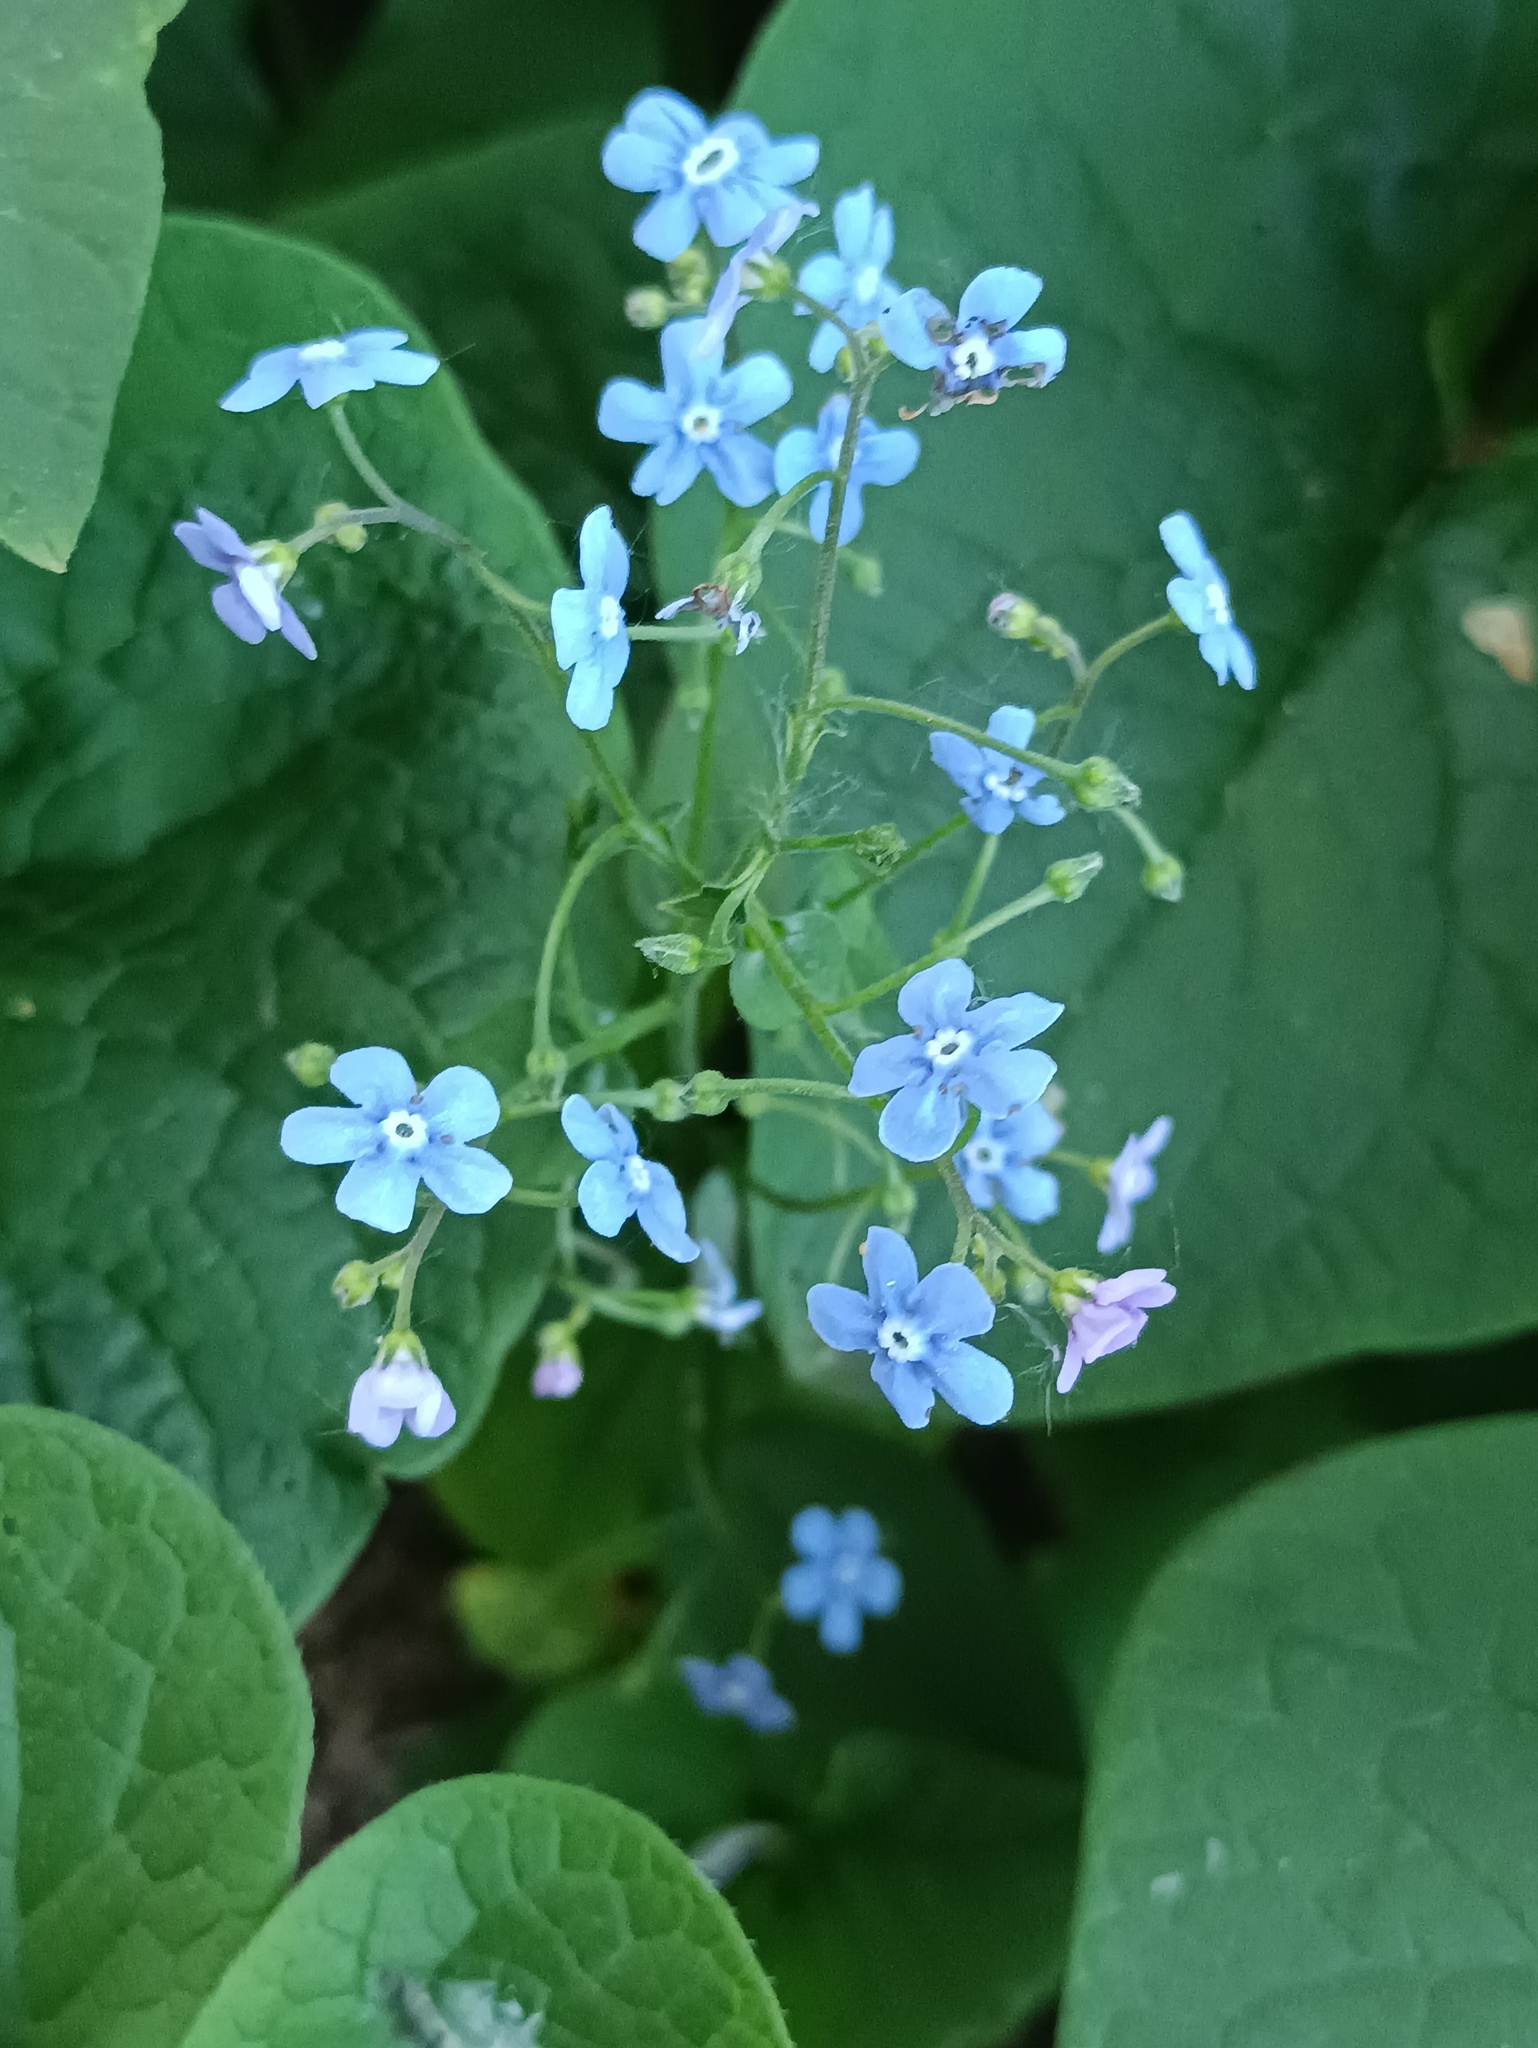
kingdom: Plantae
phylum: Tracheophyta
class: Magnoliopsida
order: Boraginales
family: Boraginaceae
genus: Brunnera
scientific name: Brunnera sibirica
